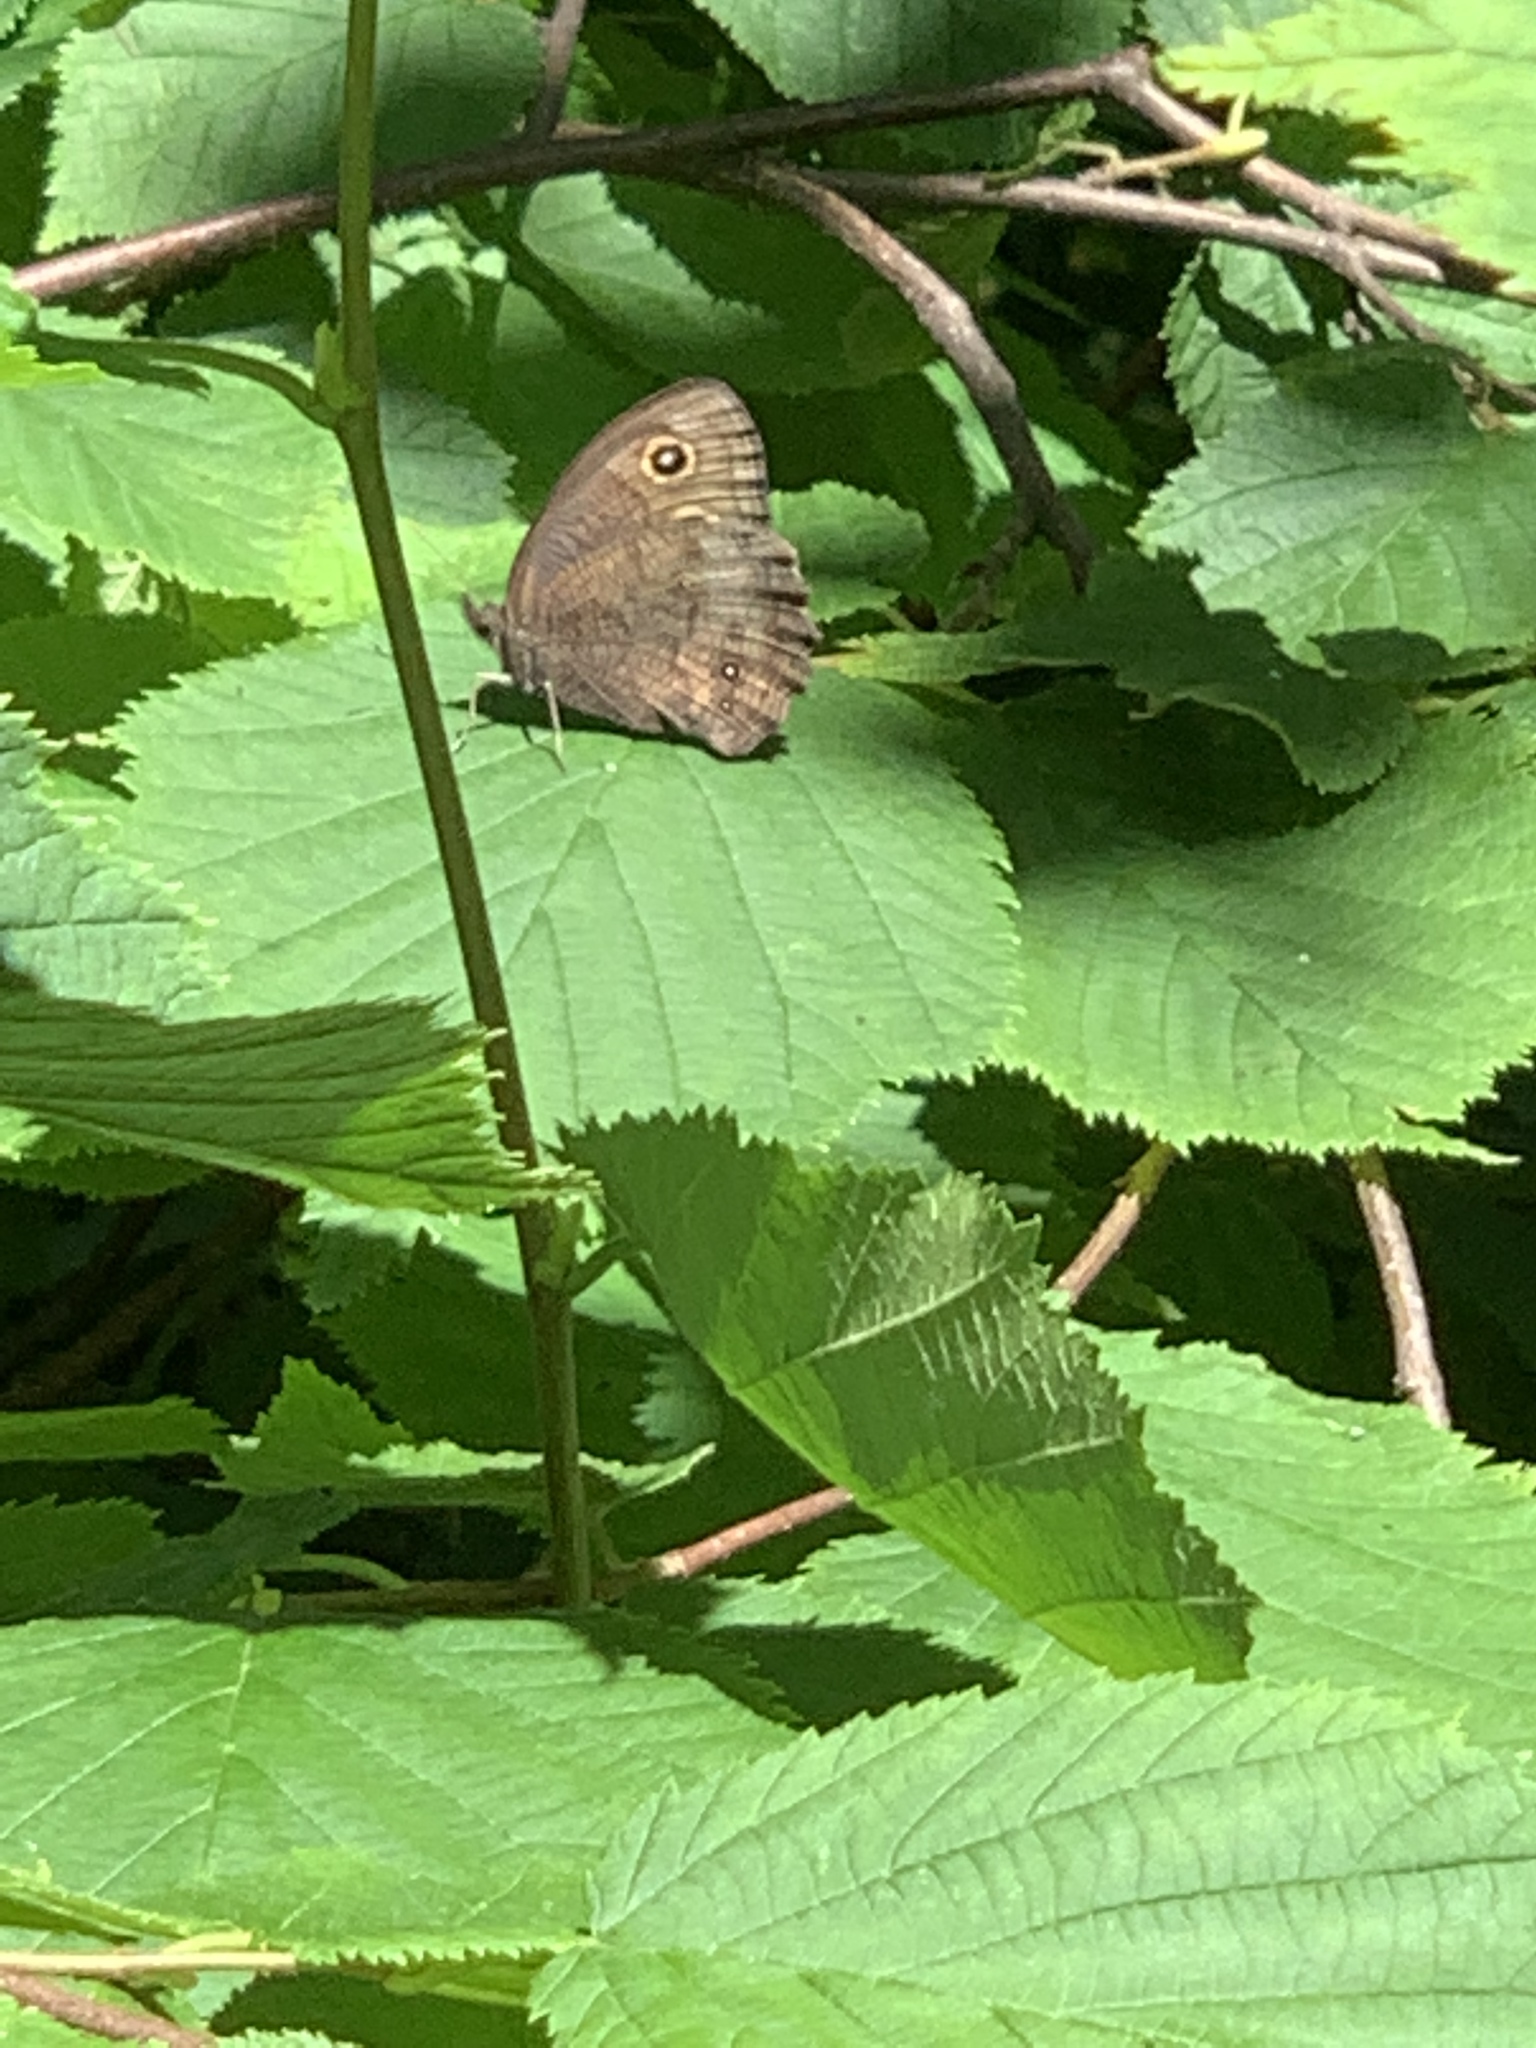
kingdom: Animalia
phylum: Arthropoda
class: Insecta
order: Lepidoptera
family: Nymphalidae
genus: Cercyonis
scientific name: Cercyonis pegala
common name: Common wood-nymph
